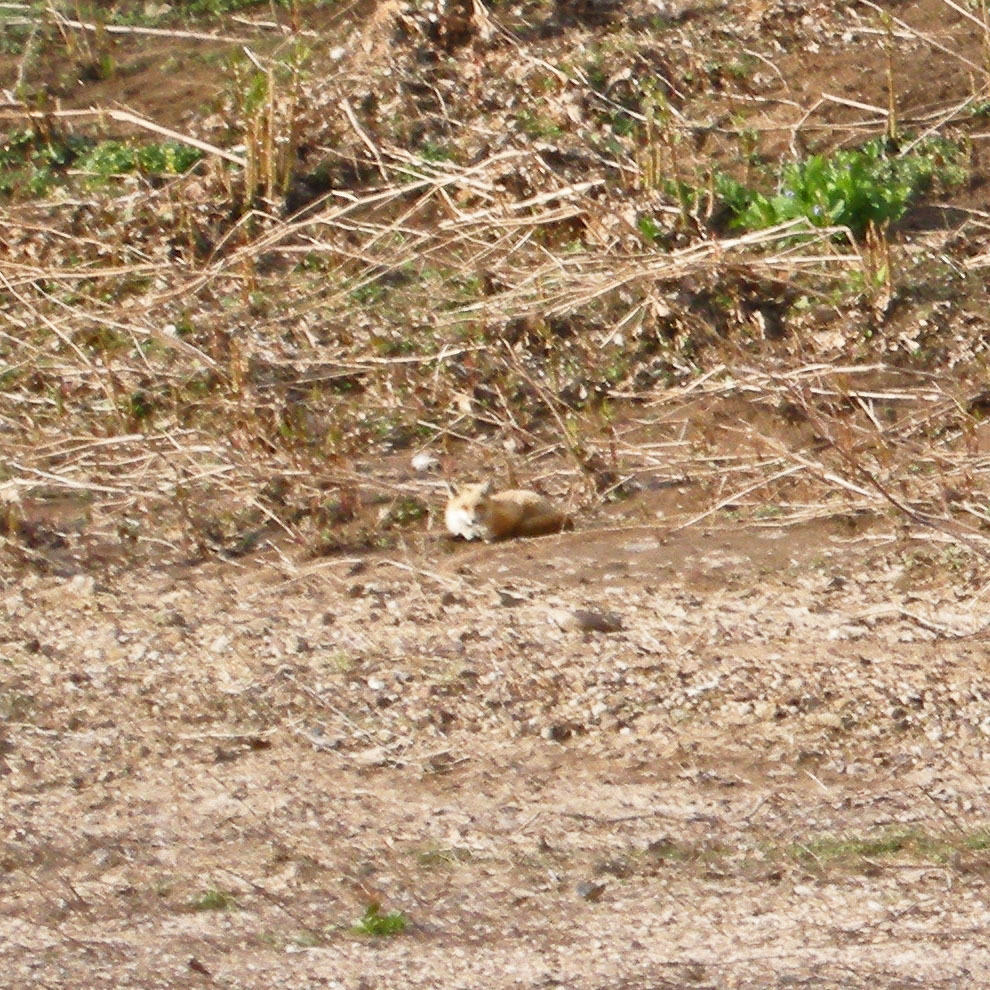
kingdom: Animalia
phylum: Chordata
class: Mammalia
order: Carnivora
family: Canidae
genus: Vulpes
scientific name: Vulpes vulpes
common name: Red fox
